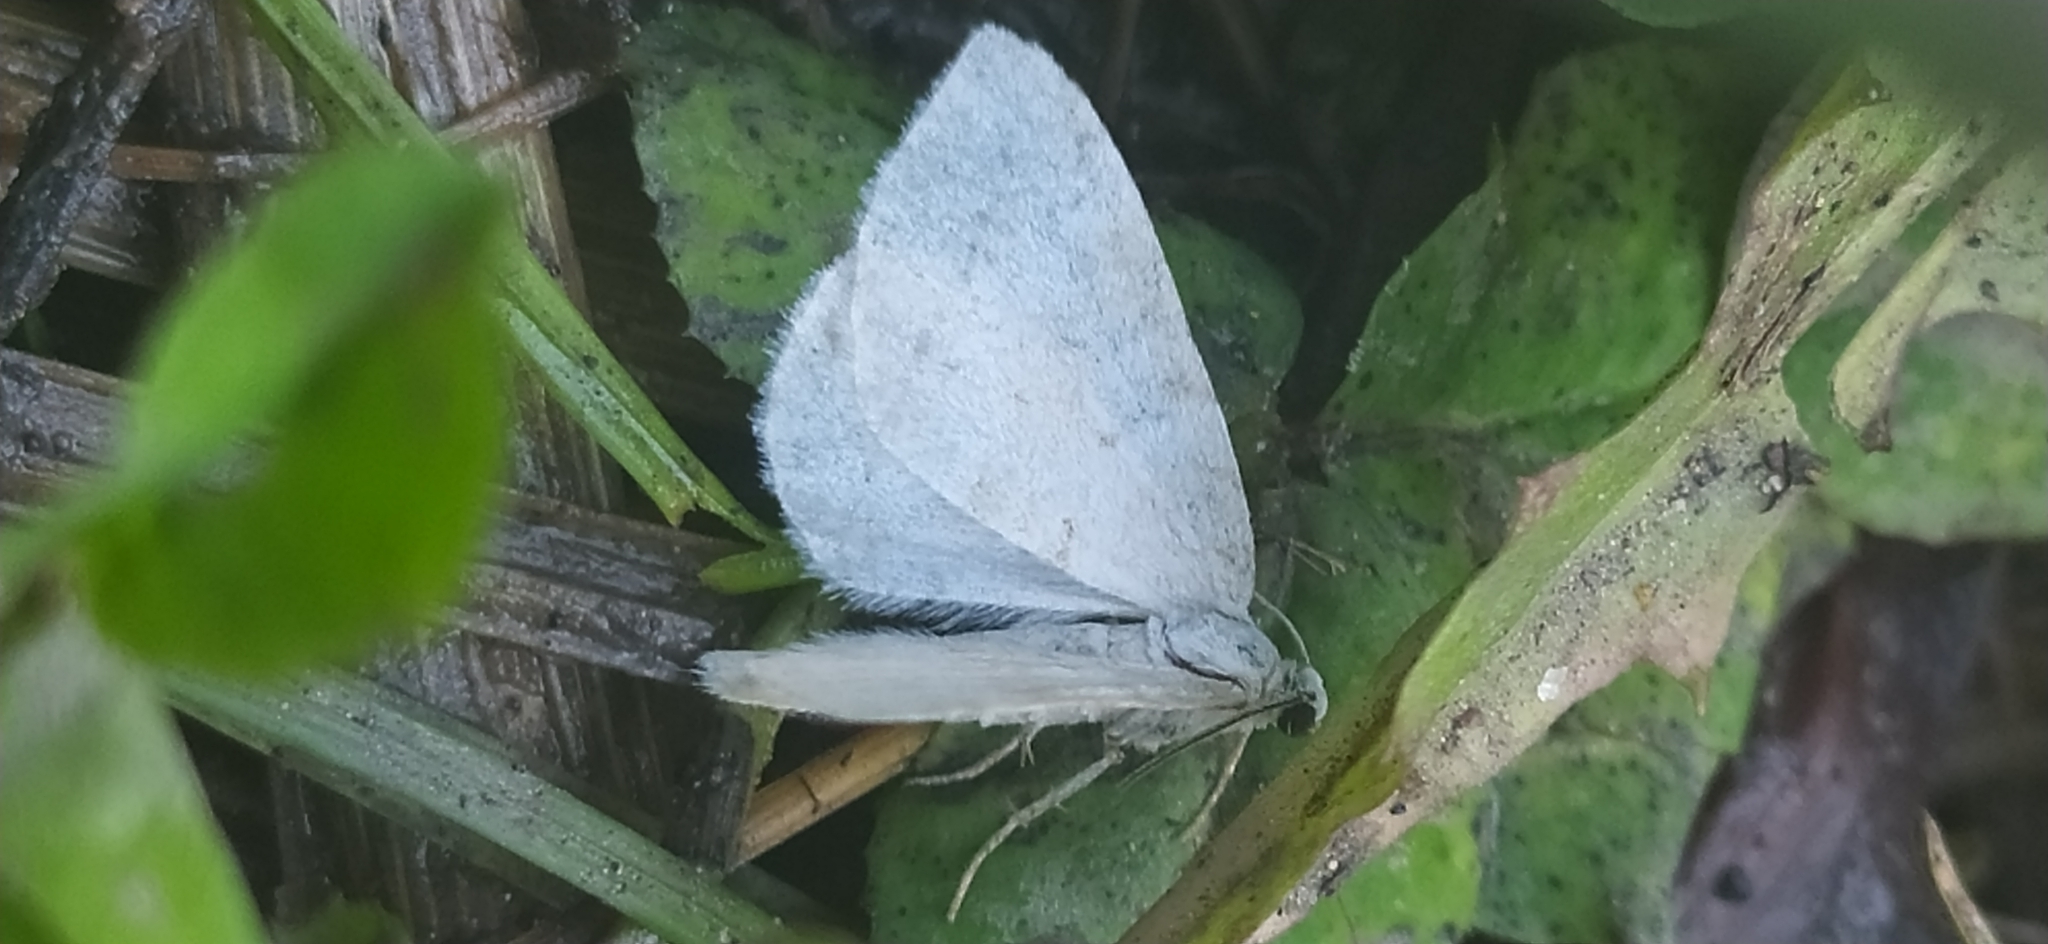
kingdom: Animalia
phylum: Arthropoda
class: Insecta
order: Lepidoptera
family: Geometridae
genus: Perizoma
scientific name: Perizoma albulata
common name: Grass rivulet
